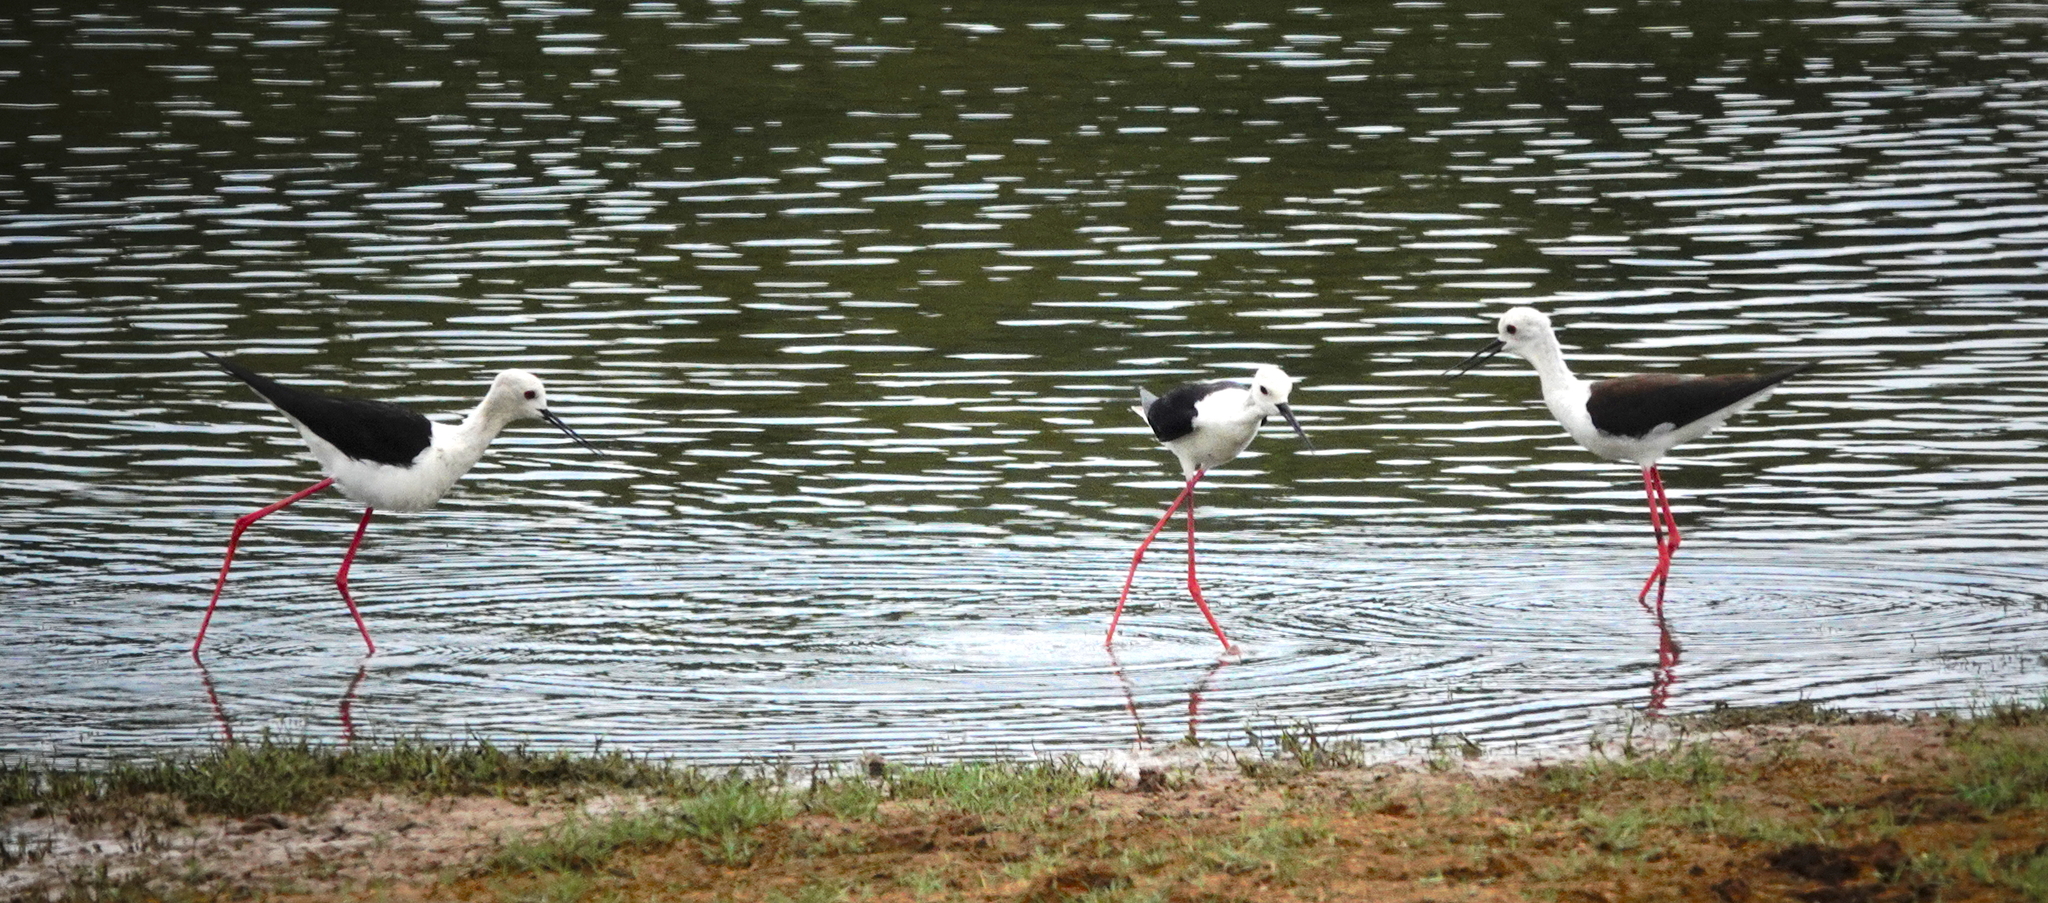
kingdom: Animalia
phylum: Chordata
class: Aves
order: Charadriiformes
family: Recurvirostridae
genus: Himantopus
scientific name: Himantopus himantopus
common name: Black-winged stilt
